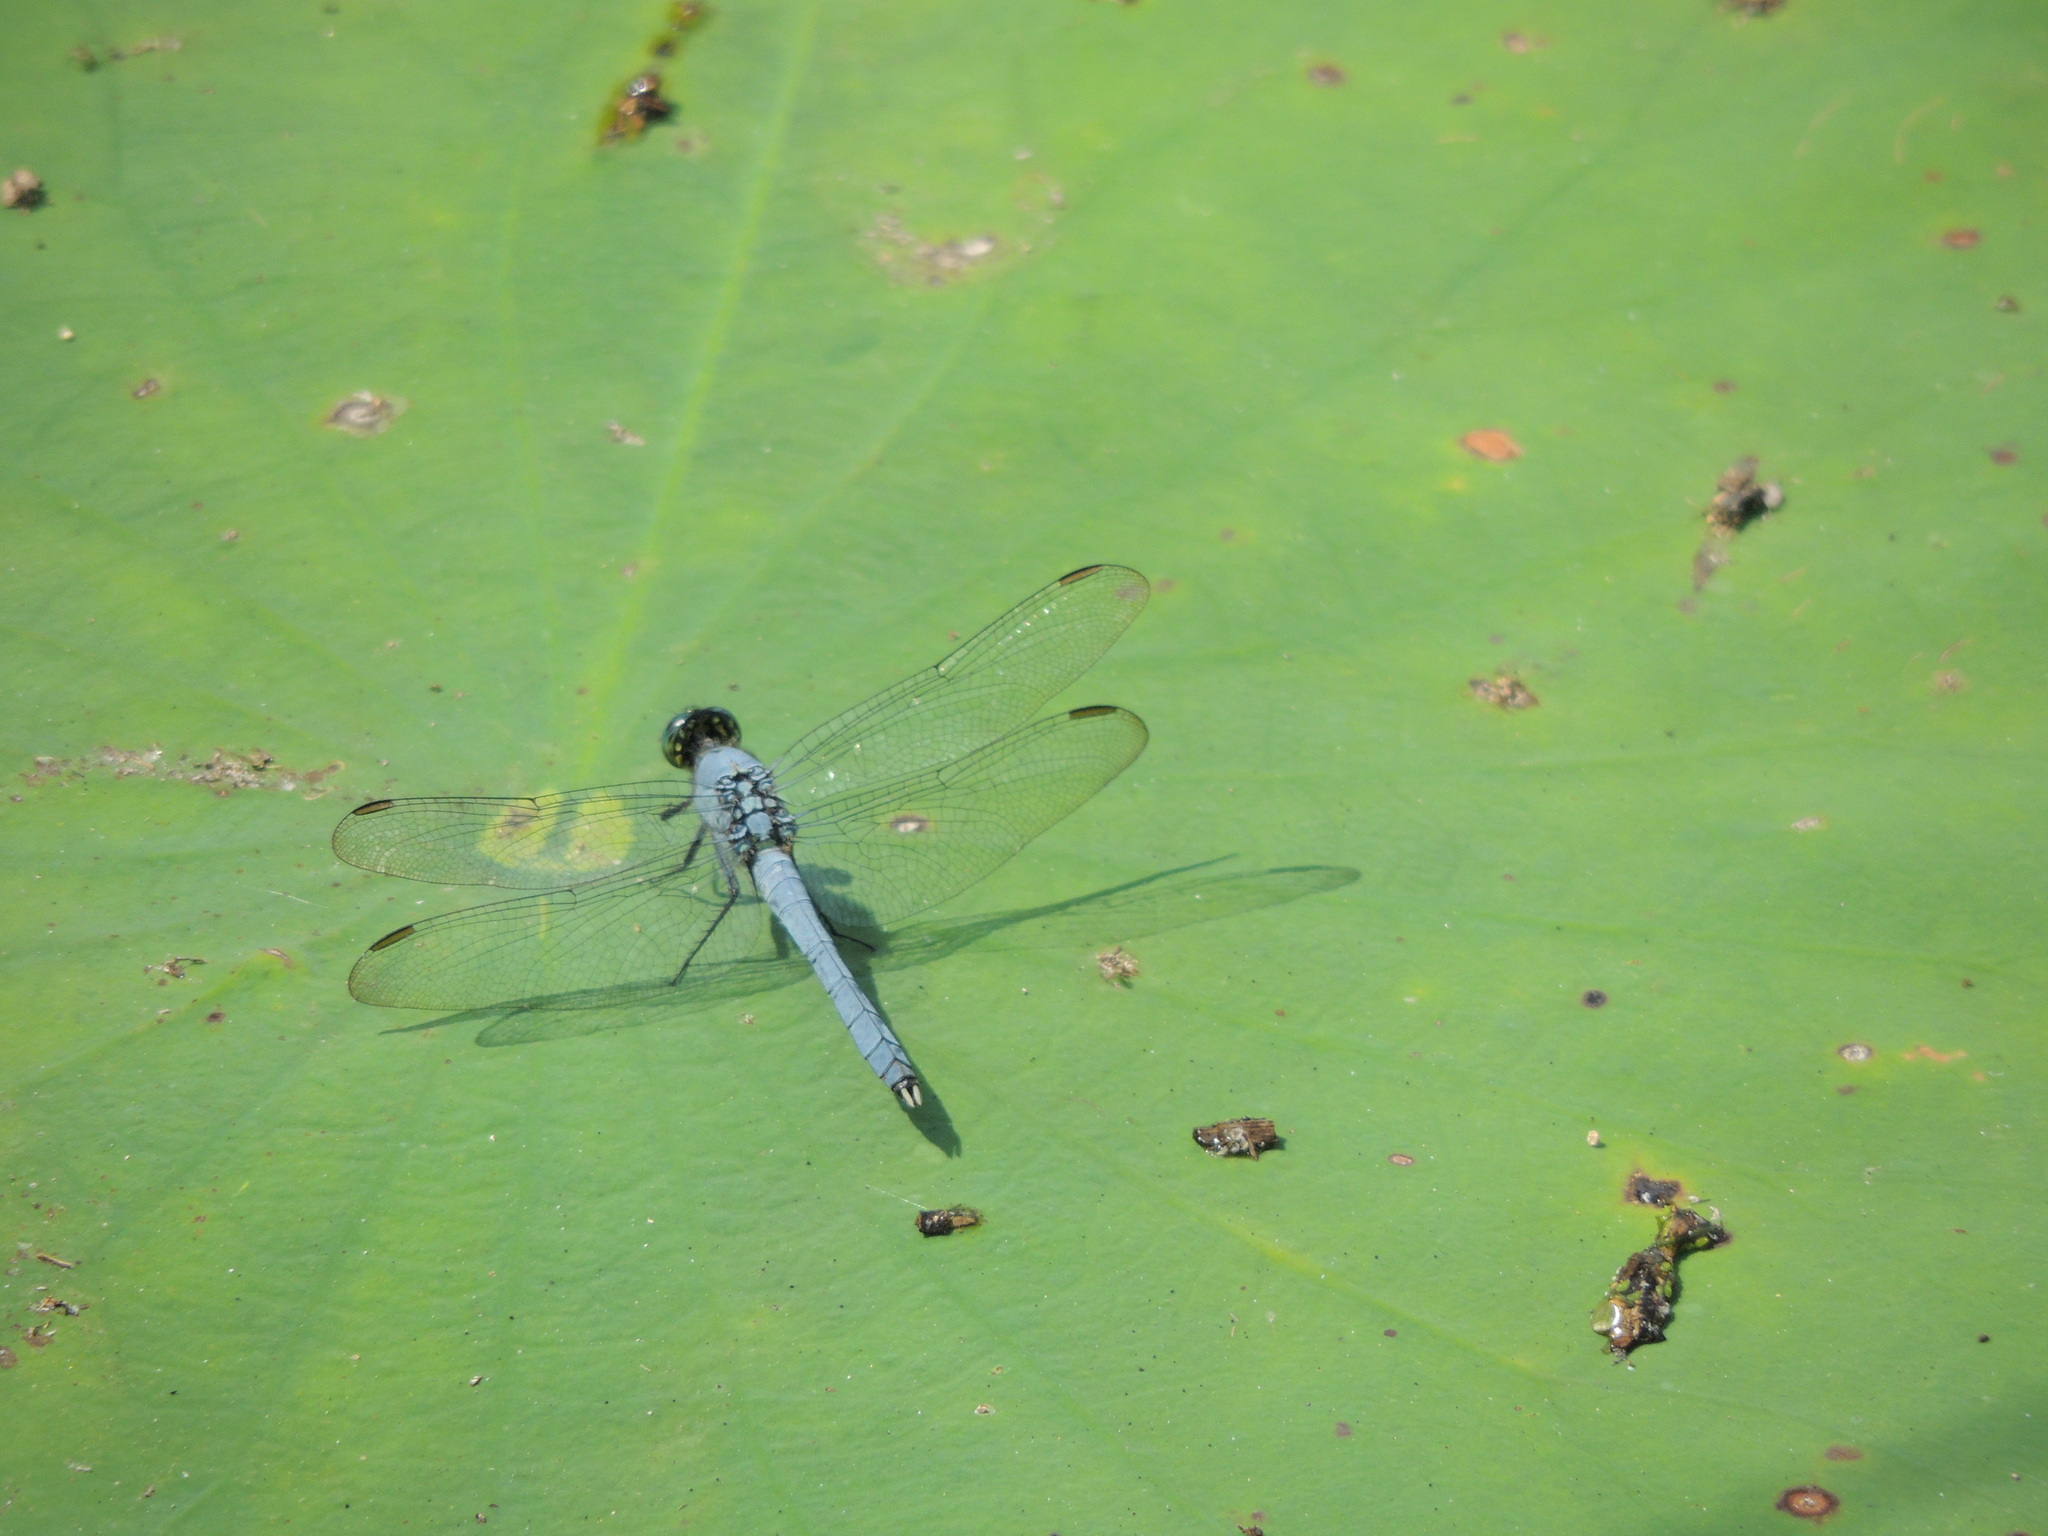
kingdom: Animalia
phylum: Arthropoda
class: Insecta
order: Odonata
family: Libellulidae
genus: Erythemis
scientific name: Erythemis simplicicollis
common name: Eastern pondhawk
